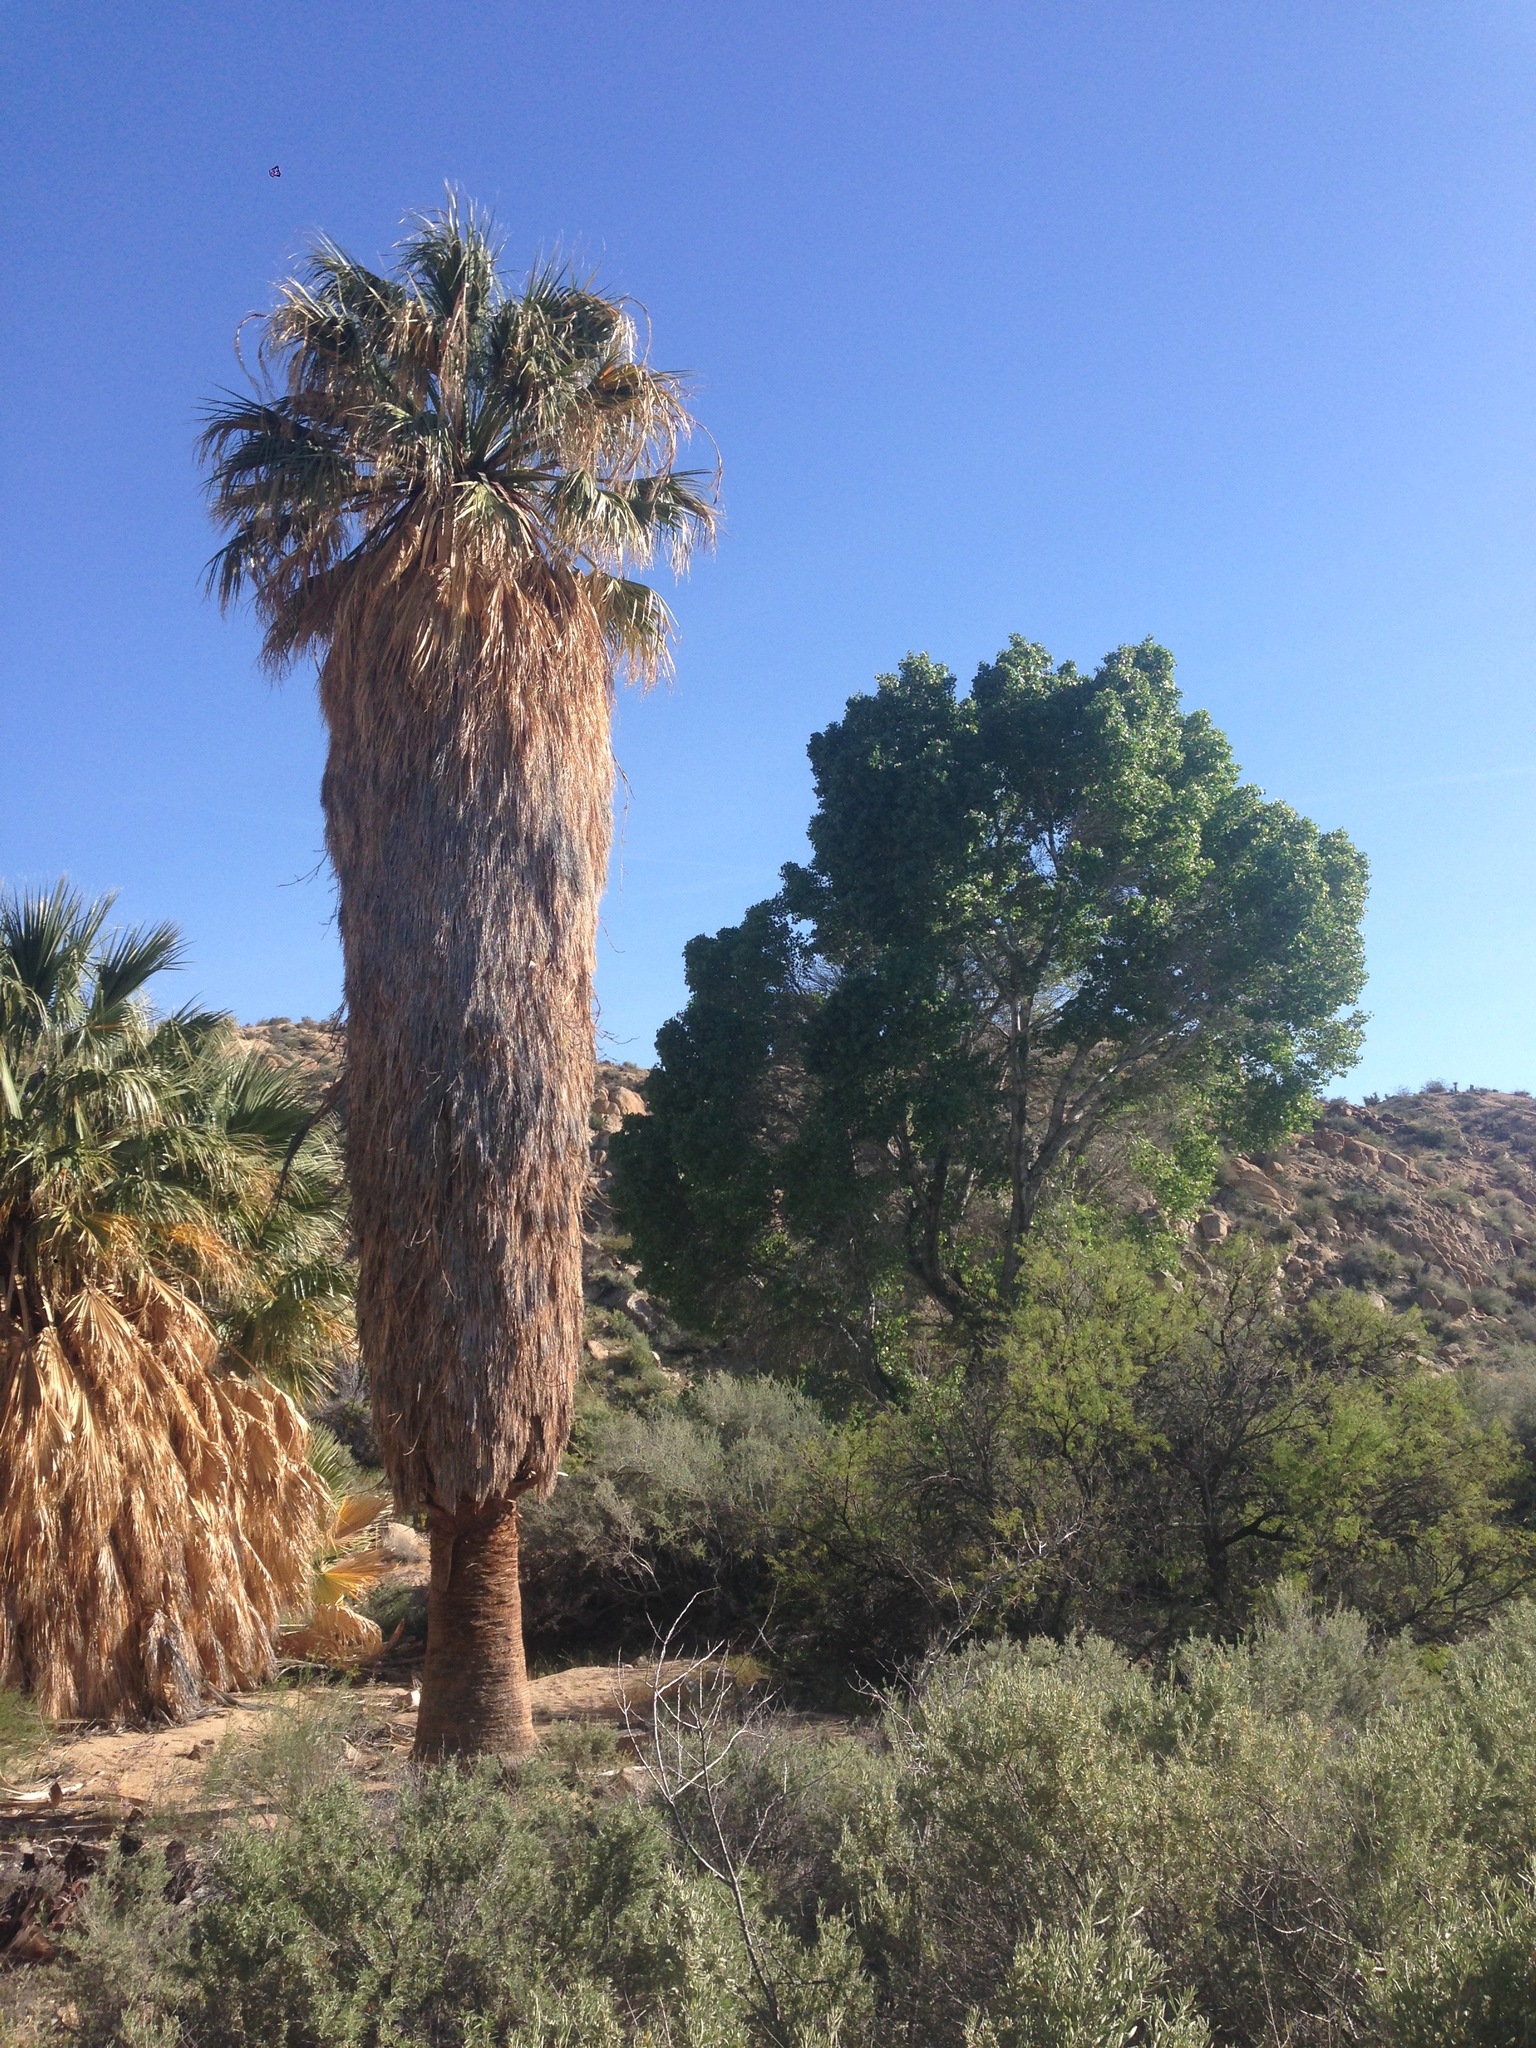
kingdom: Plantae
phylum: Tracheophyta
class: Liliopsida
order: Arecales
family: Arecaceae
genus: Washingtonia
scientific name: Washingtonia filifera
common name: California fan palm
